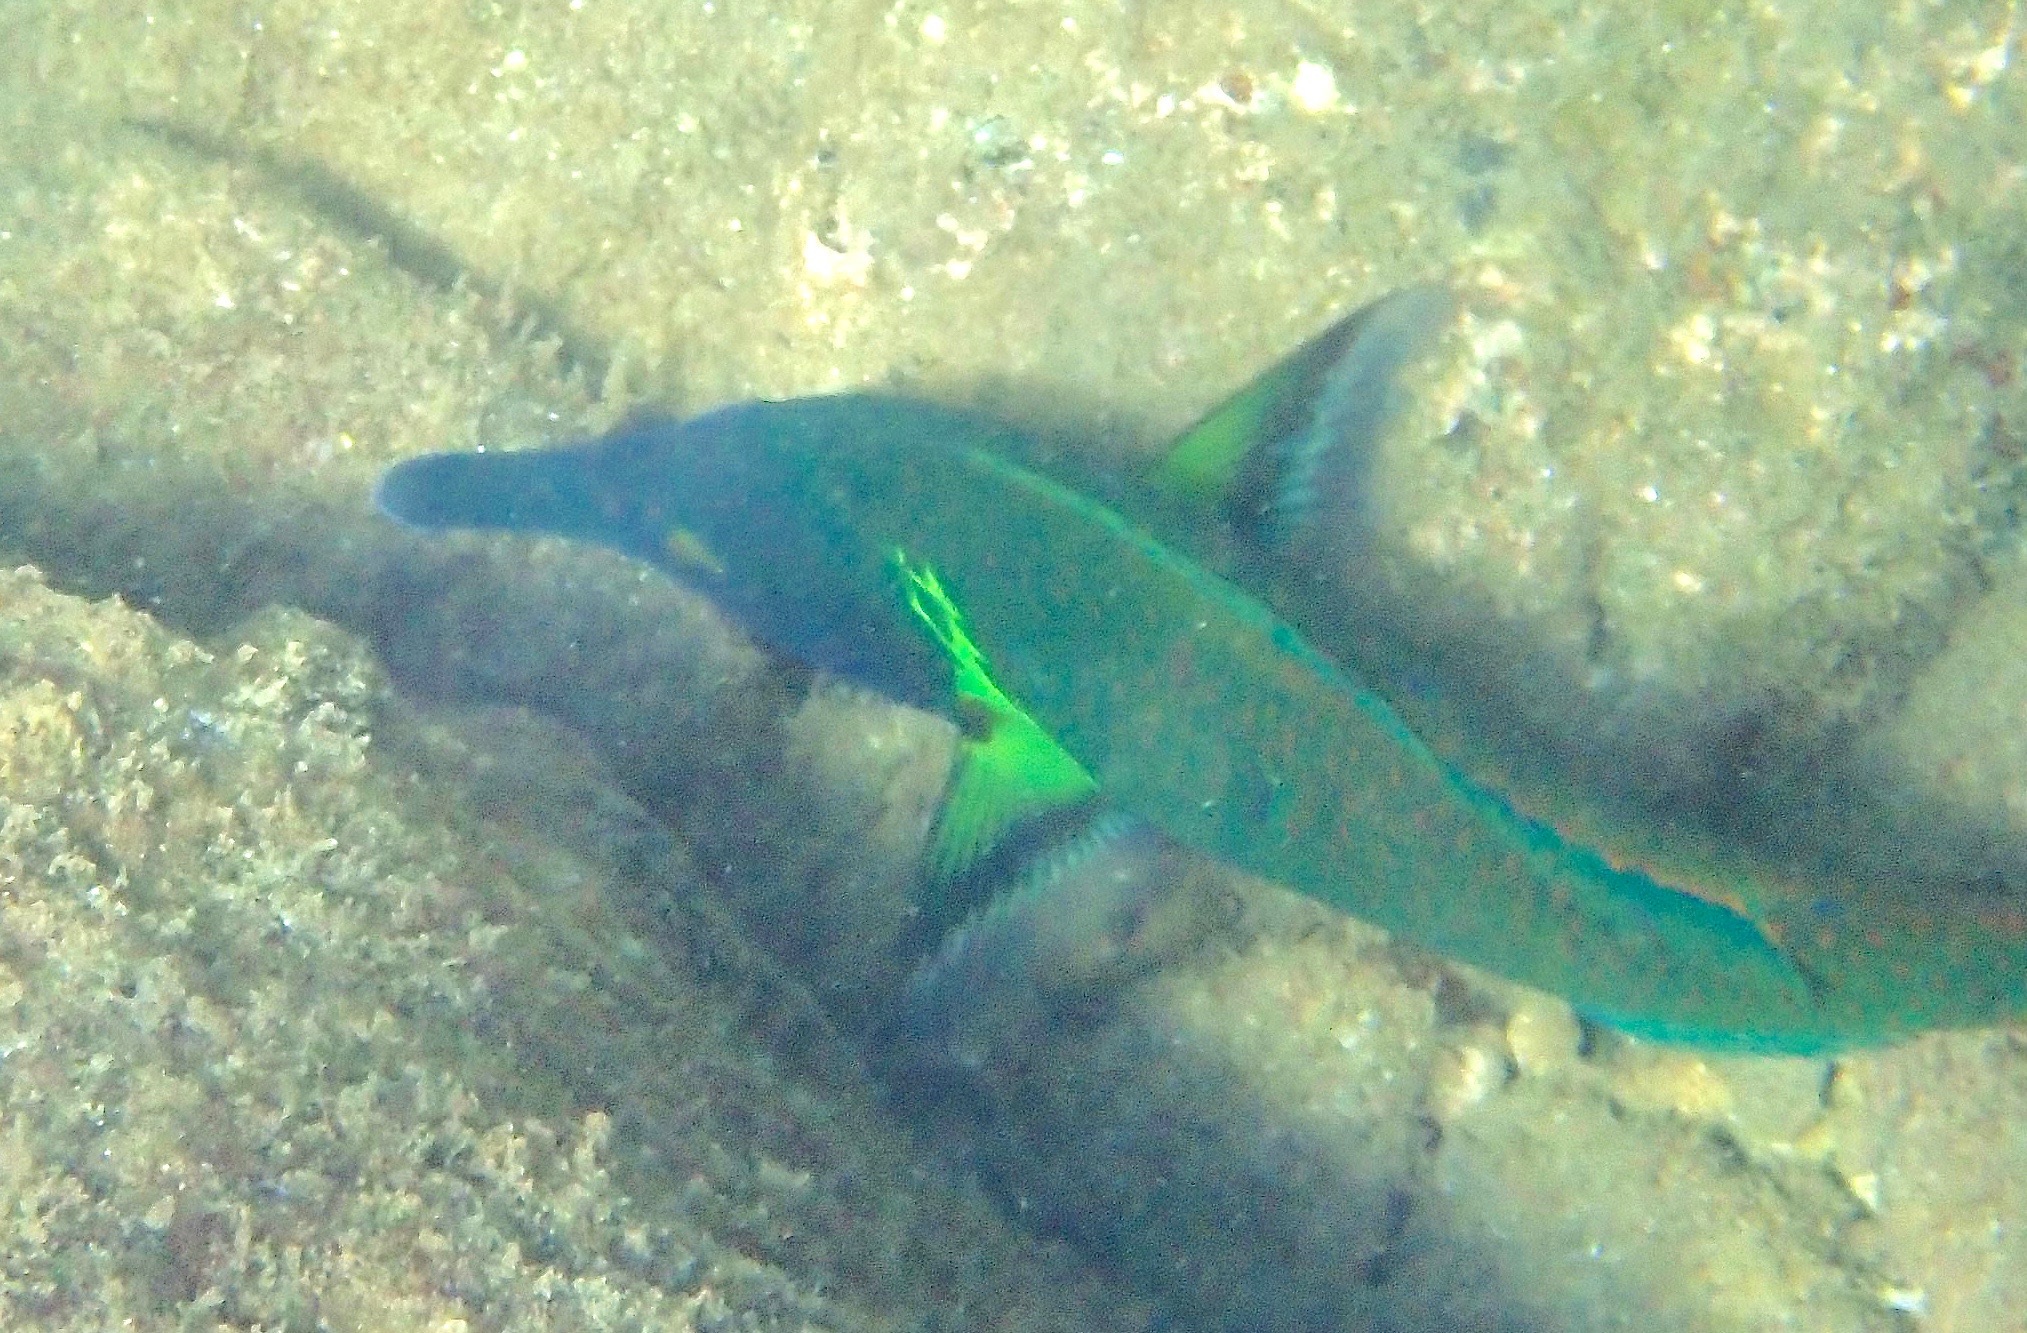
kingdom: Animalia
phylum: Chordata
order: Perciformes
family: Labridae
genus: Gomphosus
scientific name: Gomphosus varius
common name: Bird wrasse
